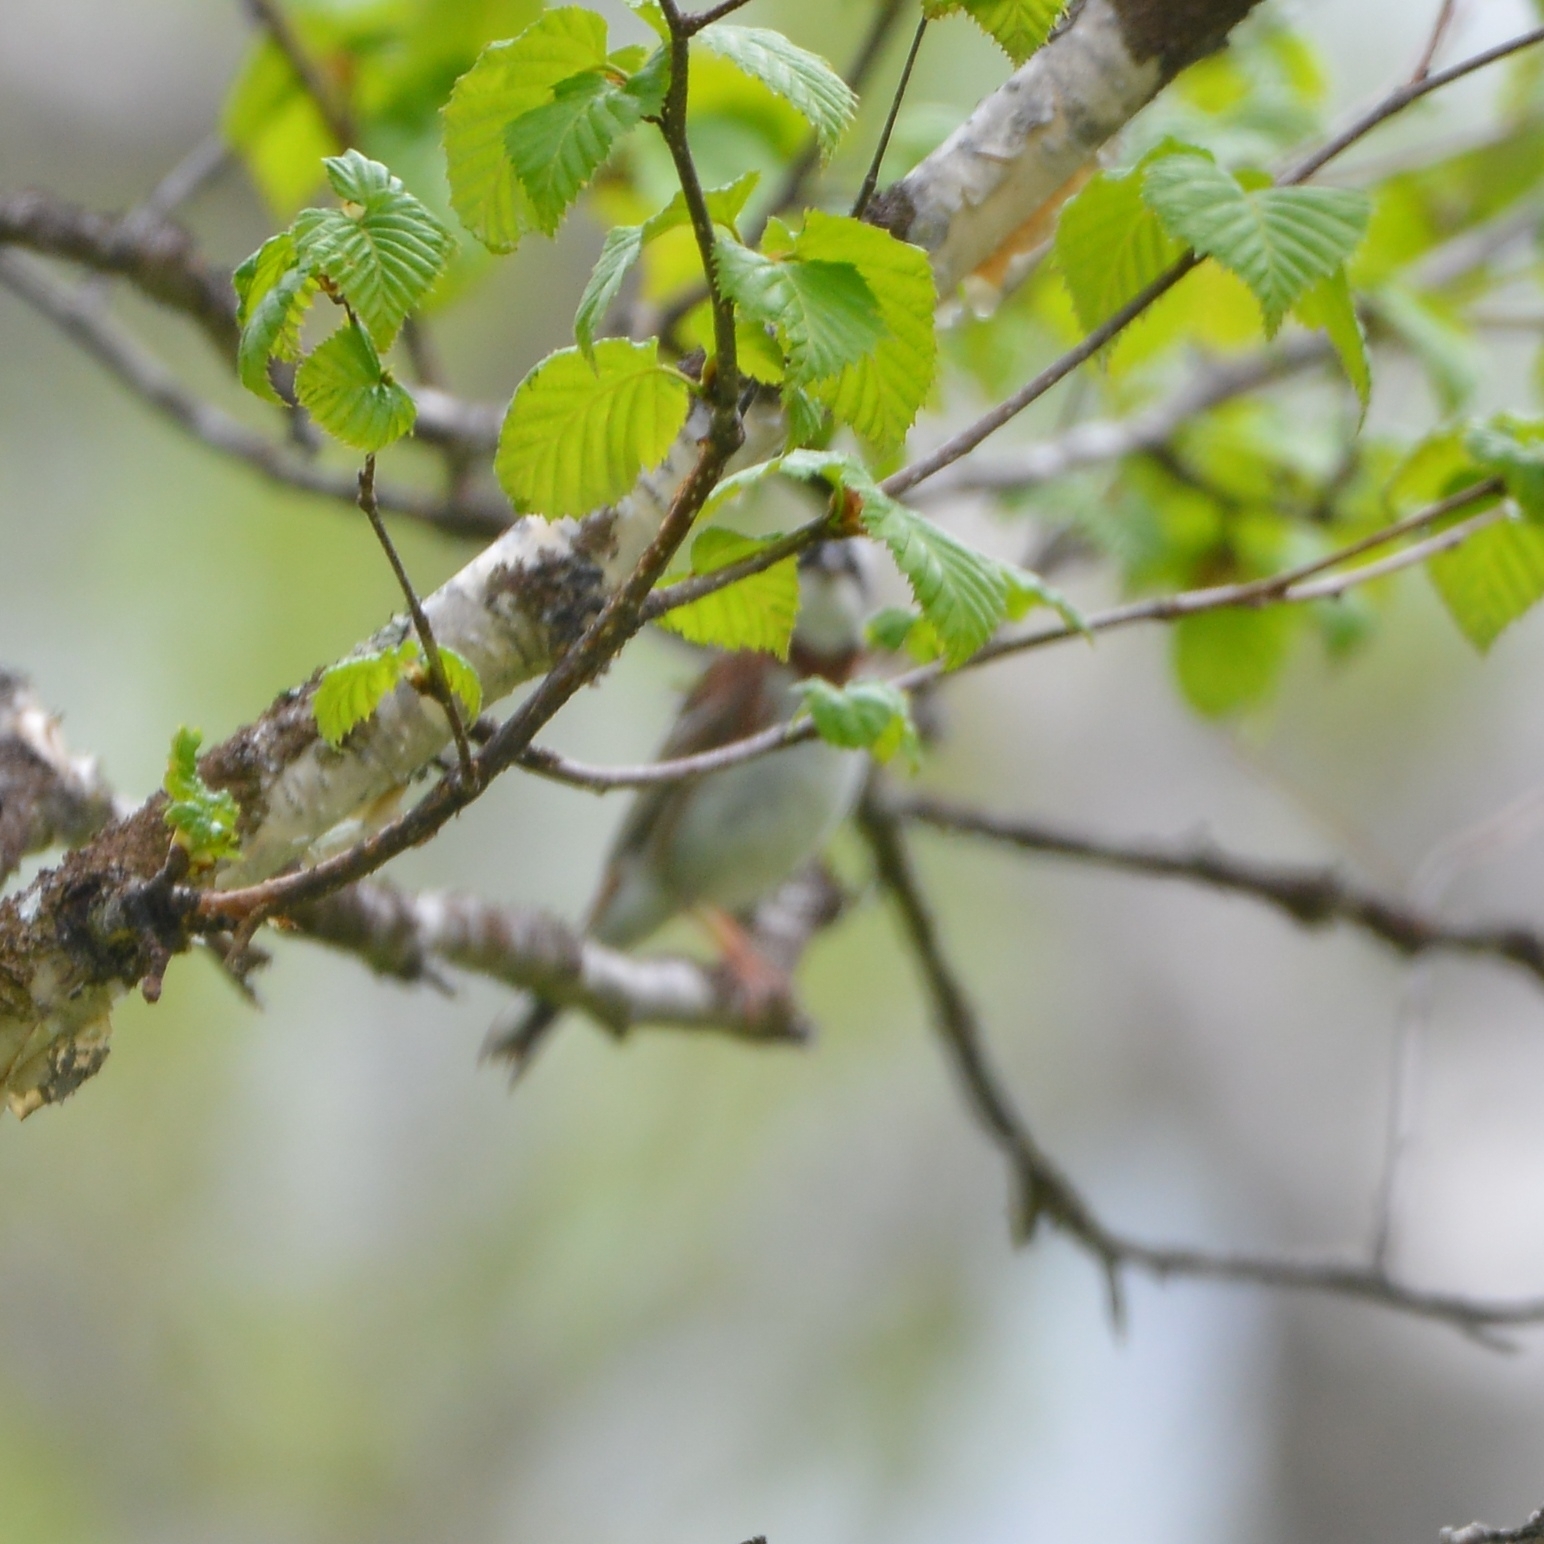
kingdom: Animalia
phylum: Chordata
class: Aves
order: Passeriformes
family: Emberizidae
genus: Emberiza
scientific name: Emberiza rustica
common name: Rustic bunting
